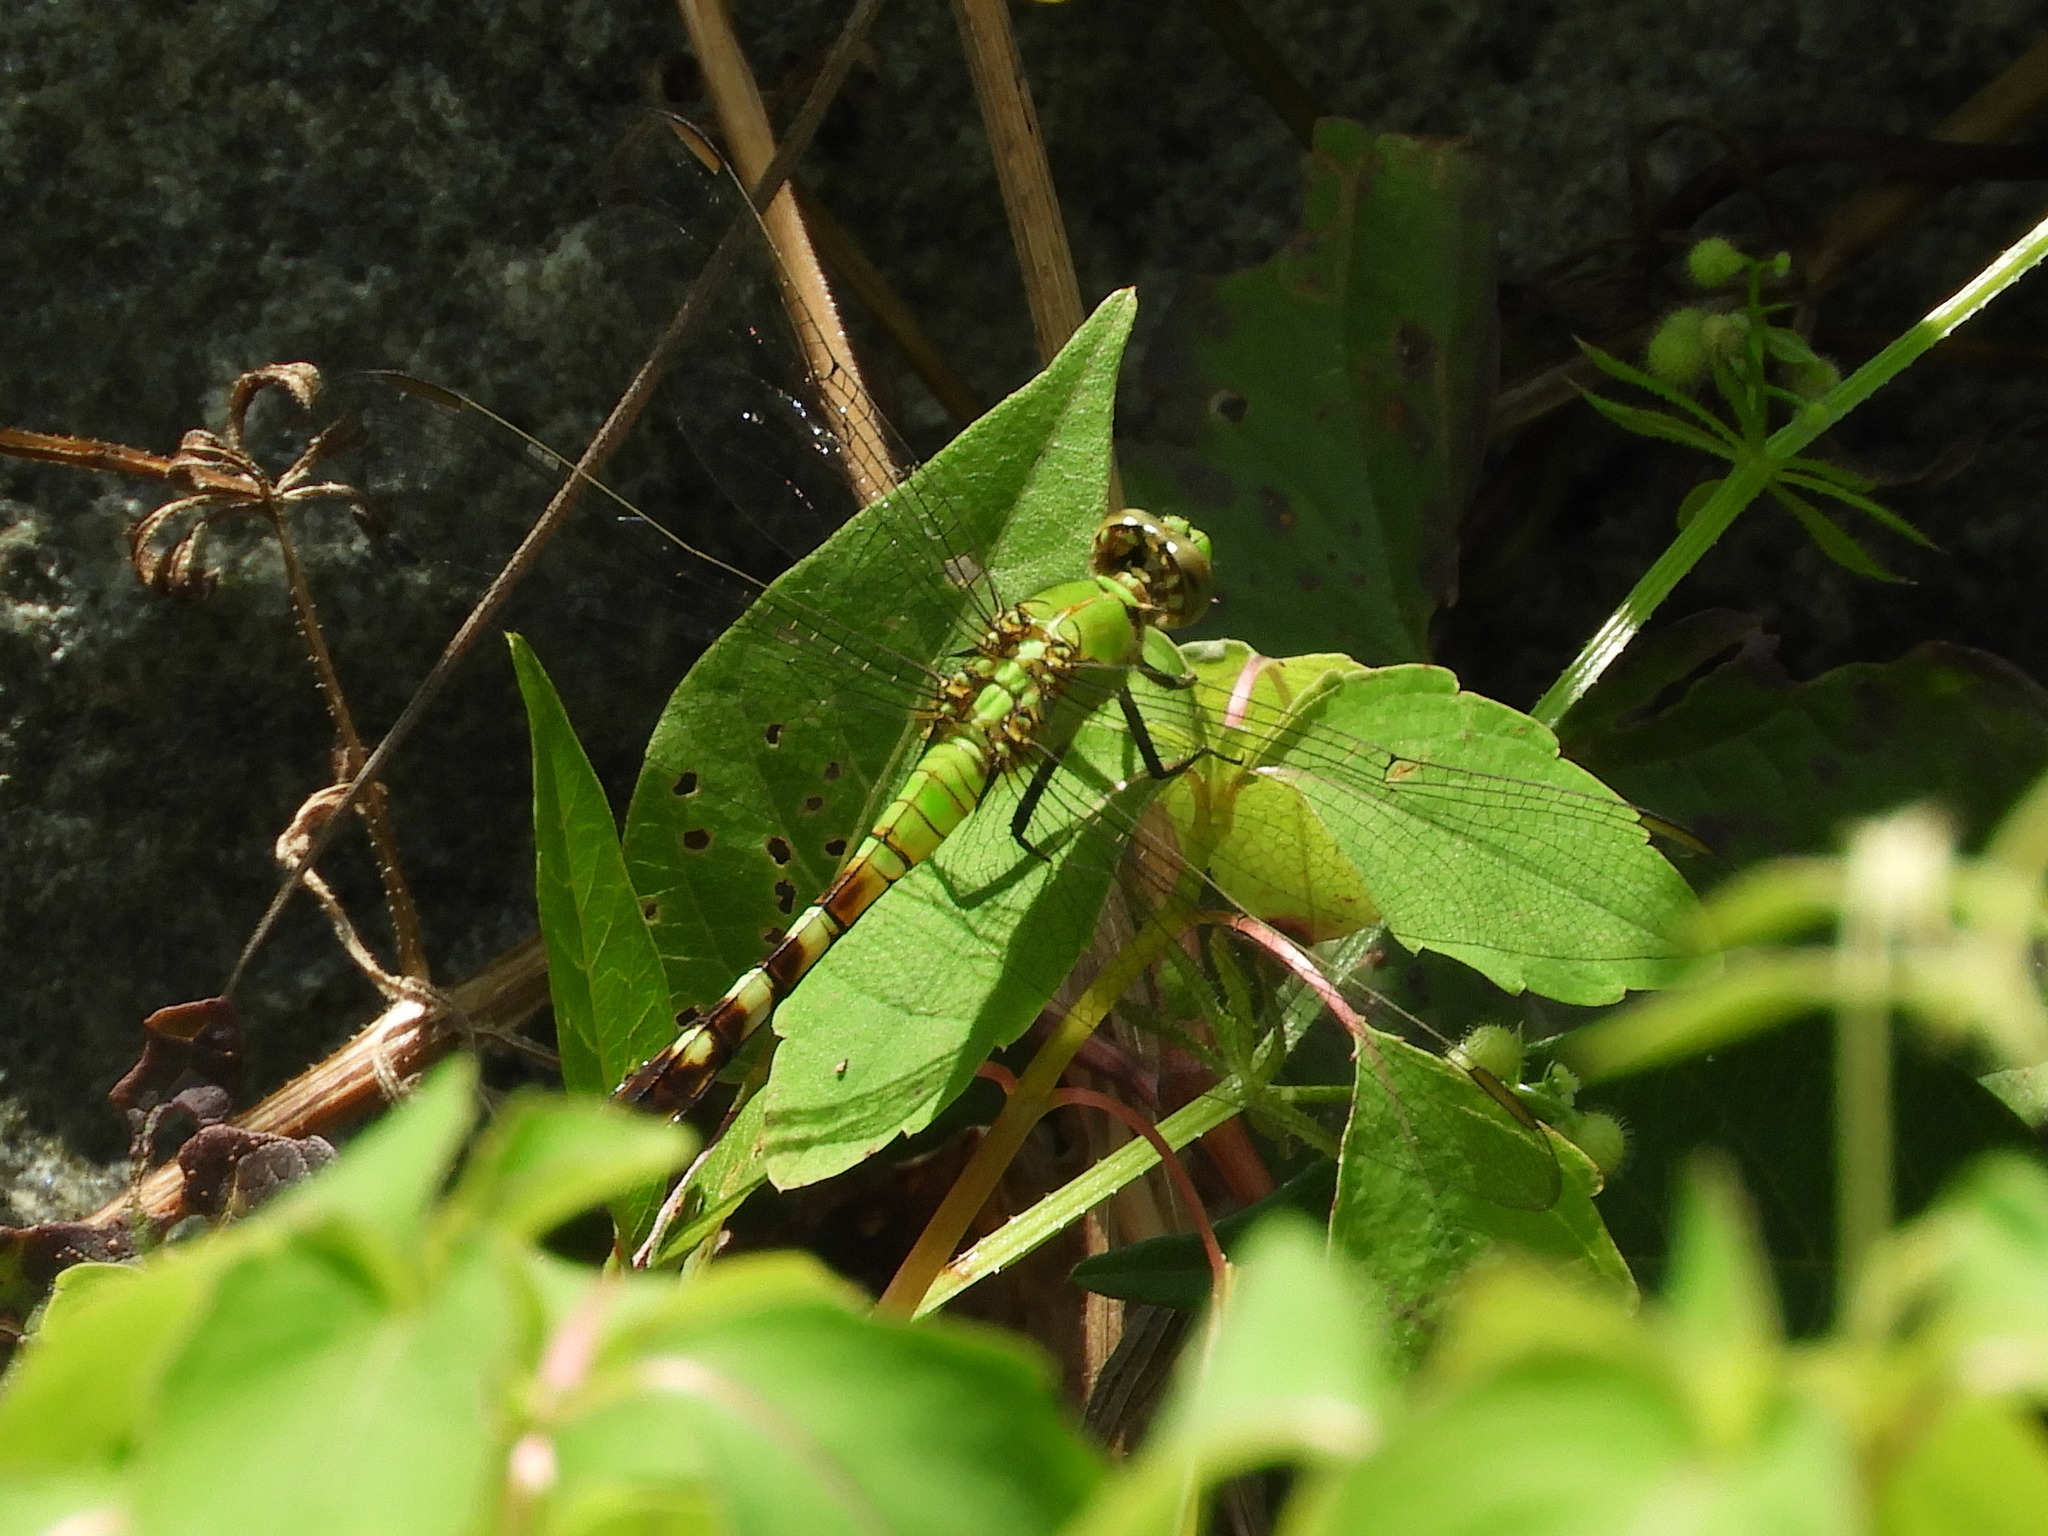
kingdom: Animalia
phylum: Arthropoda
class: Insecta
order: Odonata
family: Libellulidae
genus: Erythemis
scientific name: Erythemis simplicicollis
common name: Eastern pondhawk
